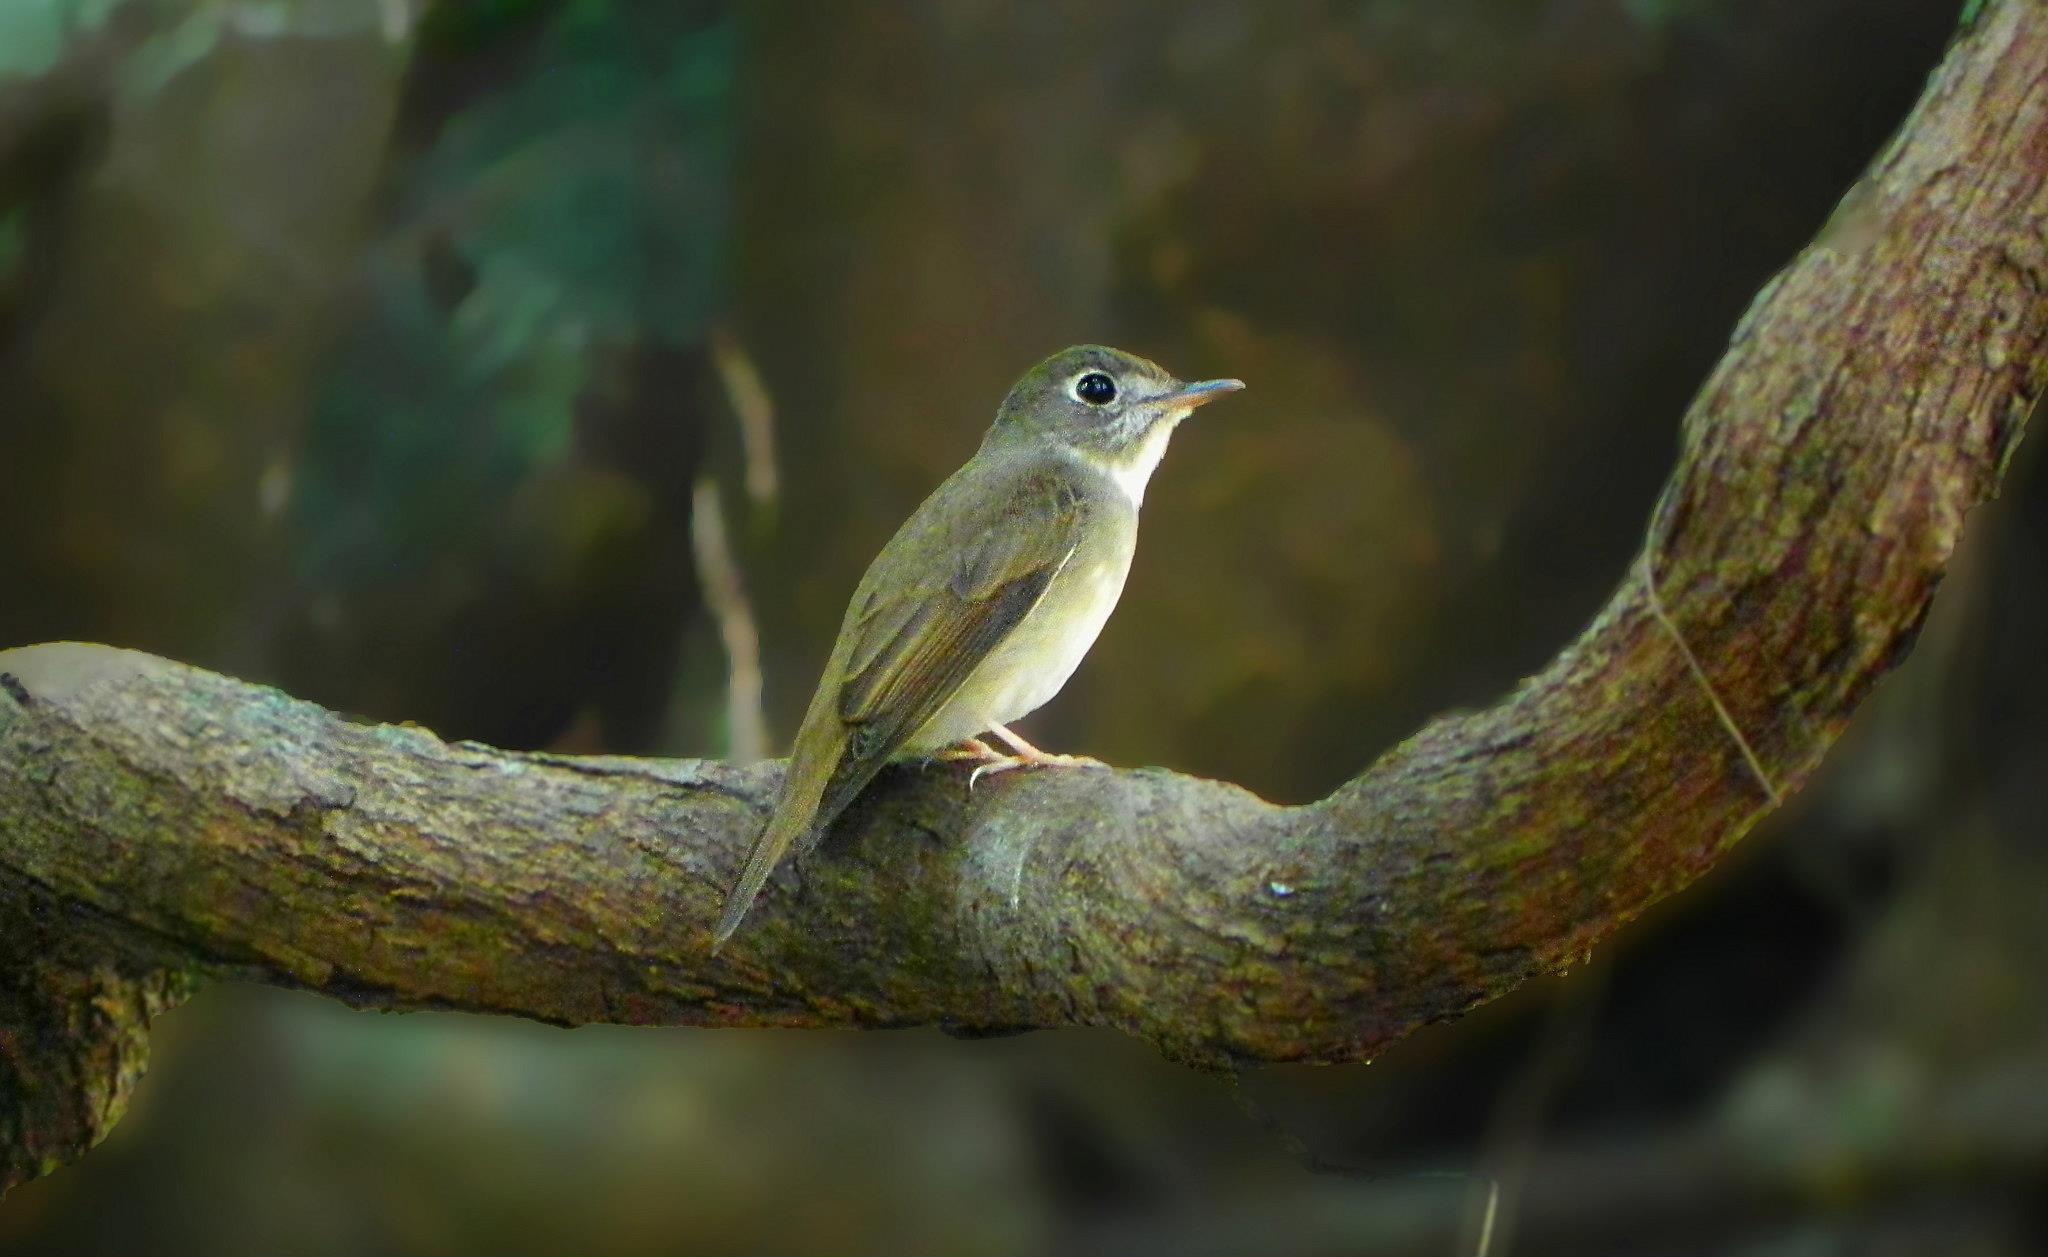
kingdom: Animalia
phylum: Chordata
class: Aves
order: Passeriformes
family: Muscicapidae
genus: Muscicapa
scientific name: Muscicapa muttui
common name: Brown-breasted flycatcher
